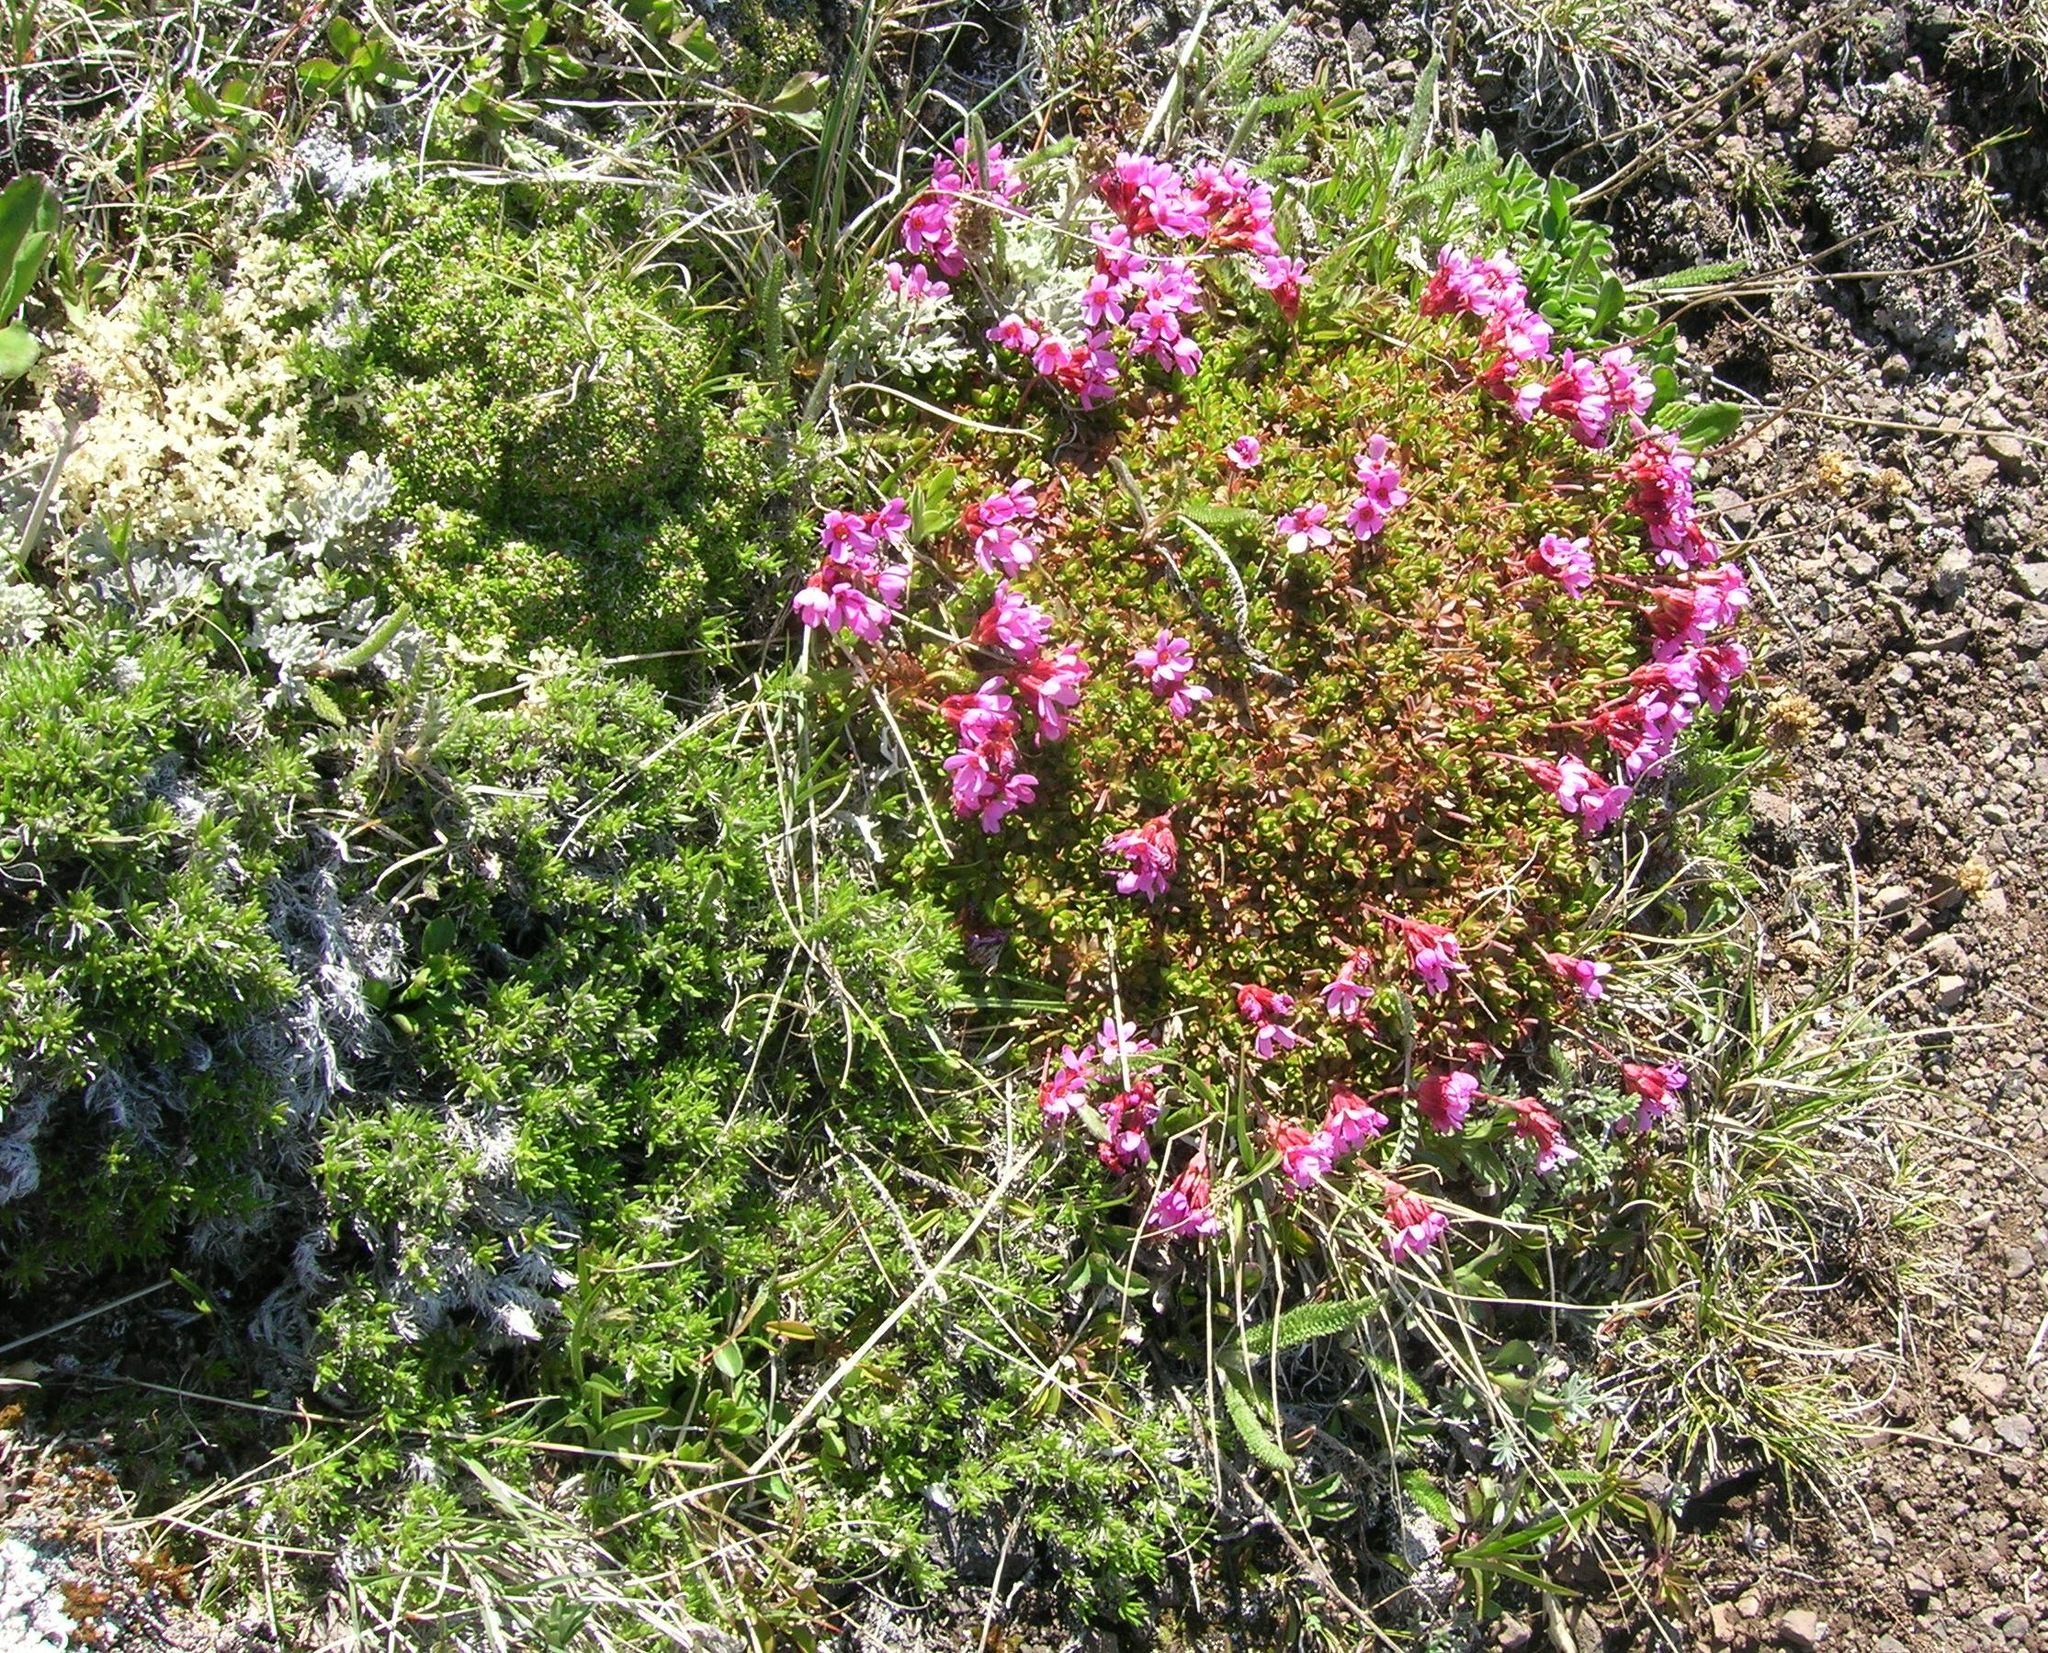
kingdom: Plantae
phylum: Tracheophyta
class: Magnoliopsida
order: Ericales
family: Primulaceae
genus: Androsace
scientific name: Androsace laevigata
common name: Cliff dwarf-primrose
